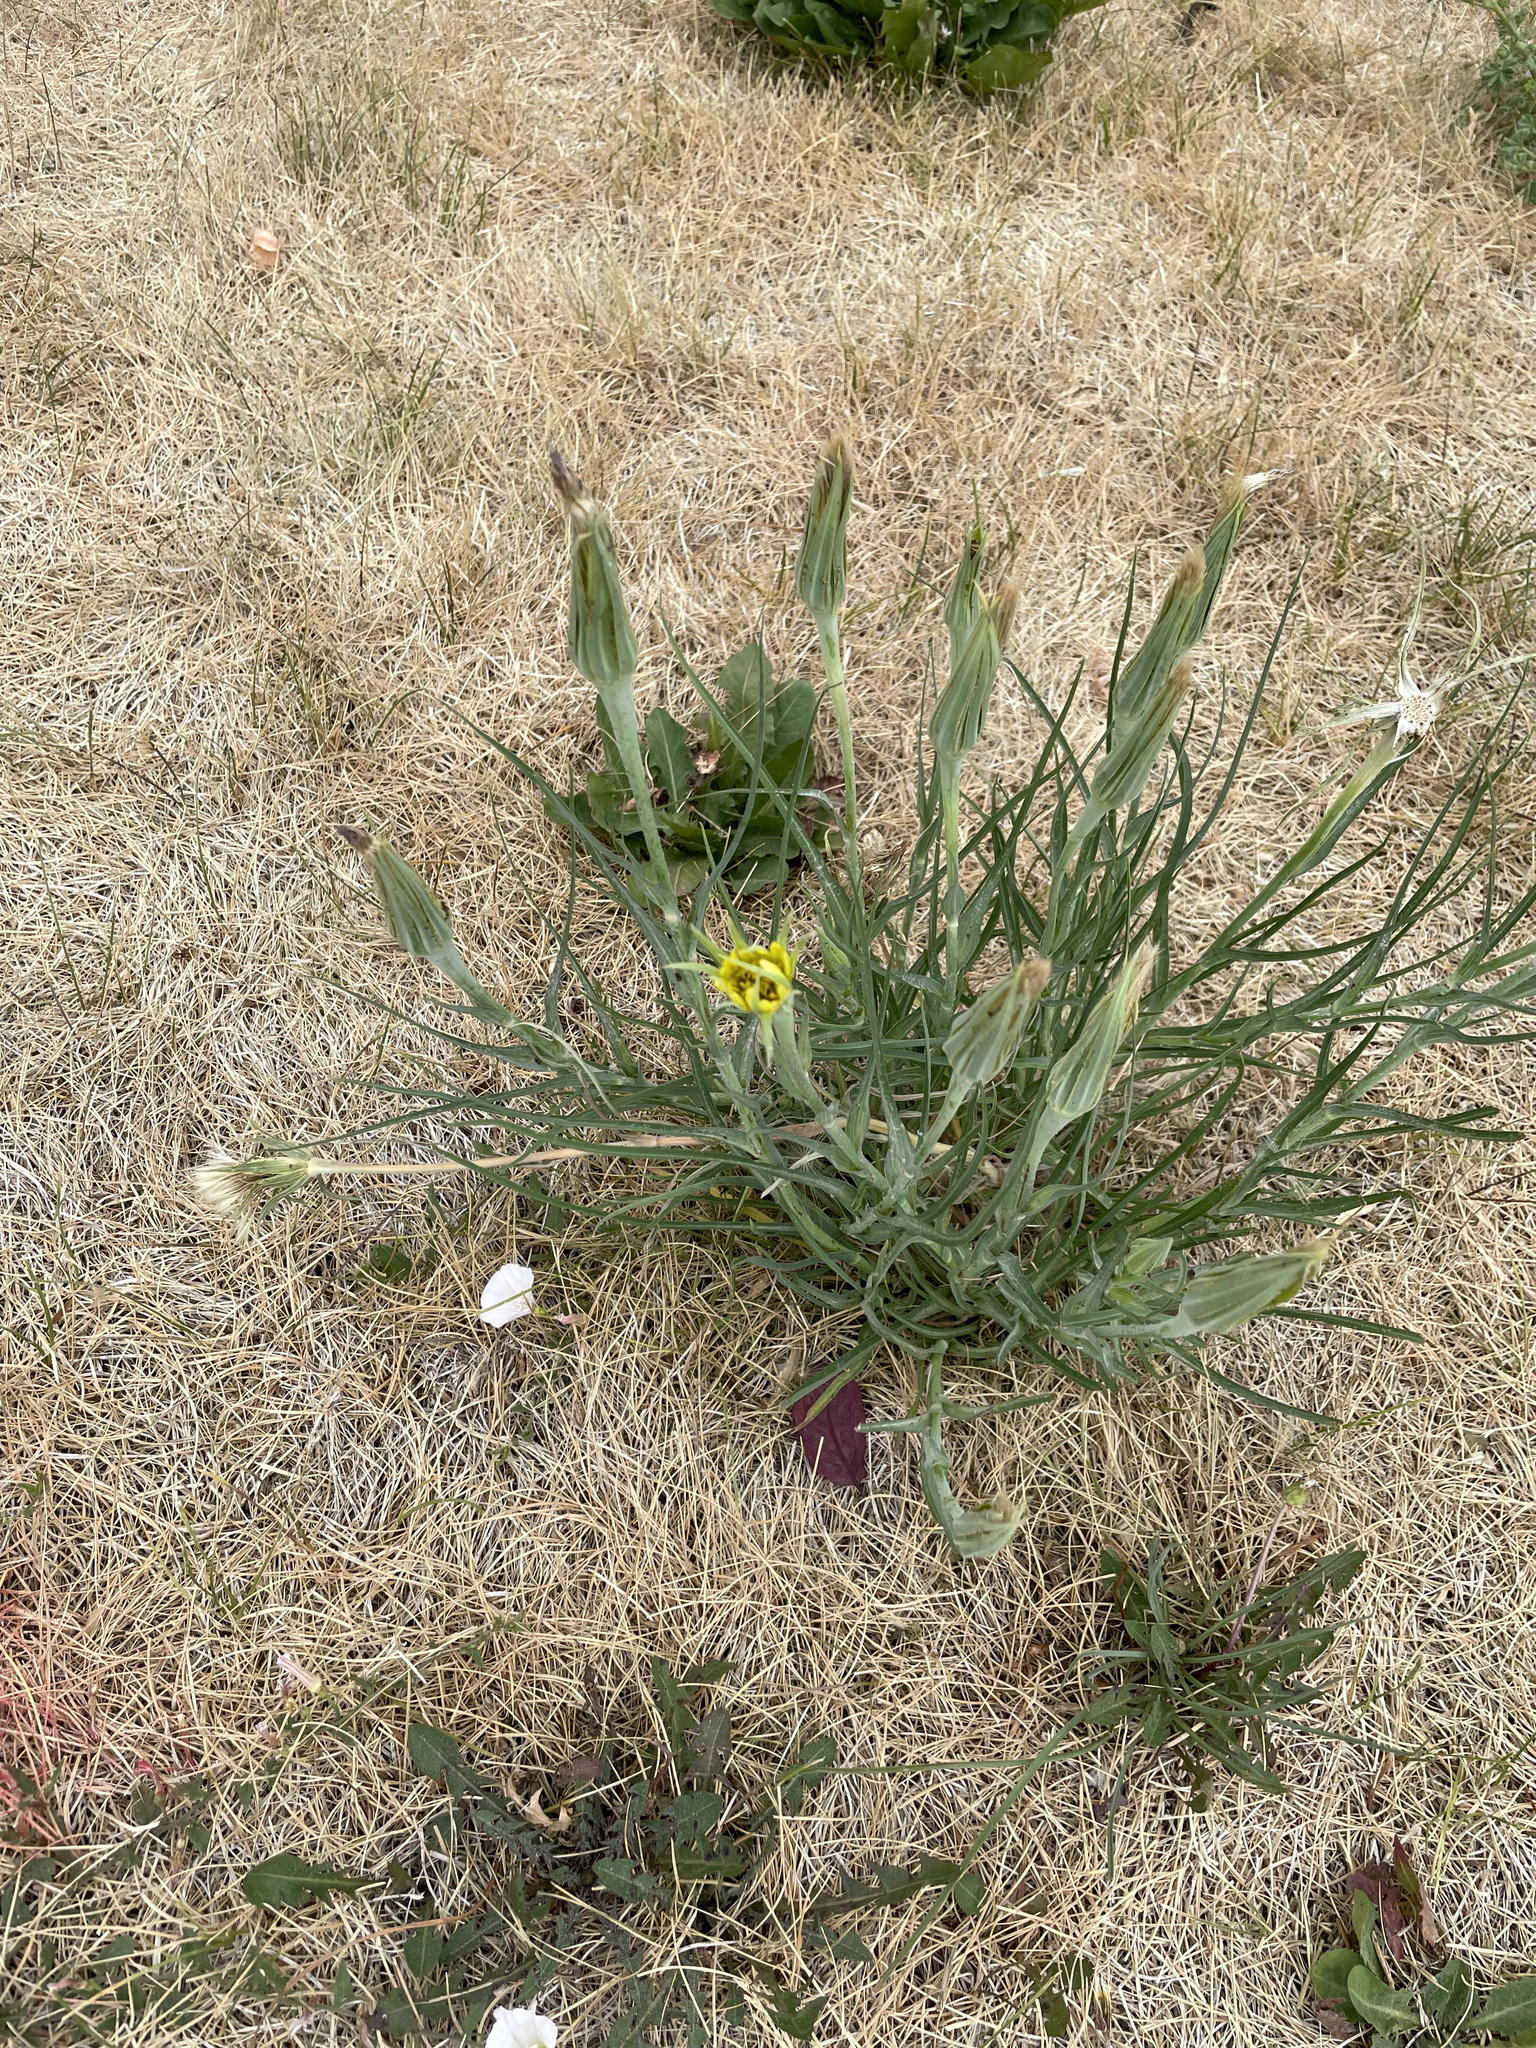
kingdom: Plantae
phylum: Tracheophyta
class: Magnoliopsida
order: Asterales
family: Asteraceae
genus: Tragopogon
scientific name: Tragopogon dubius
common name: Yellow salsify
